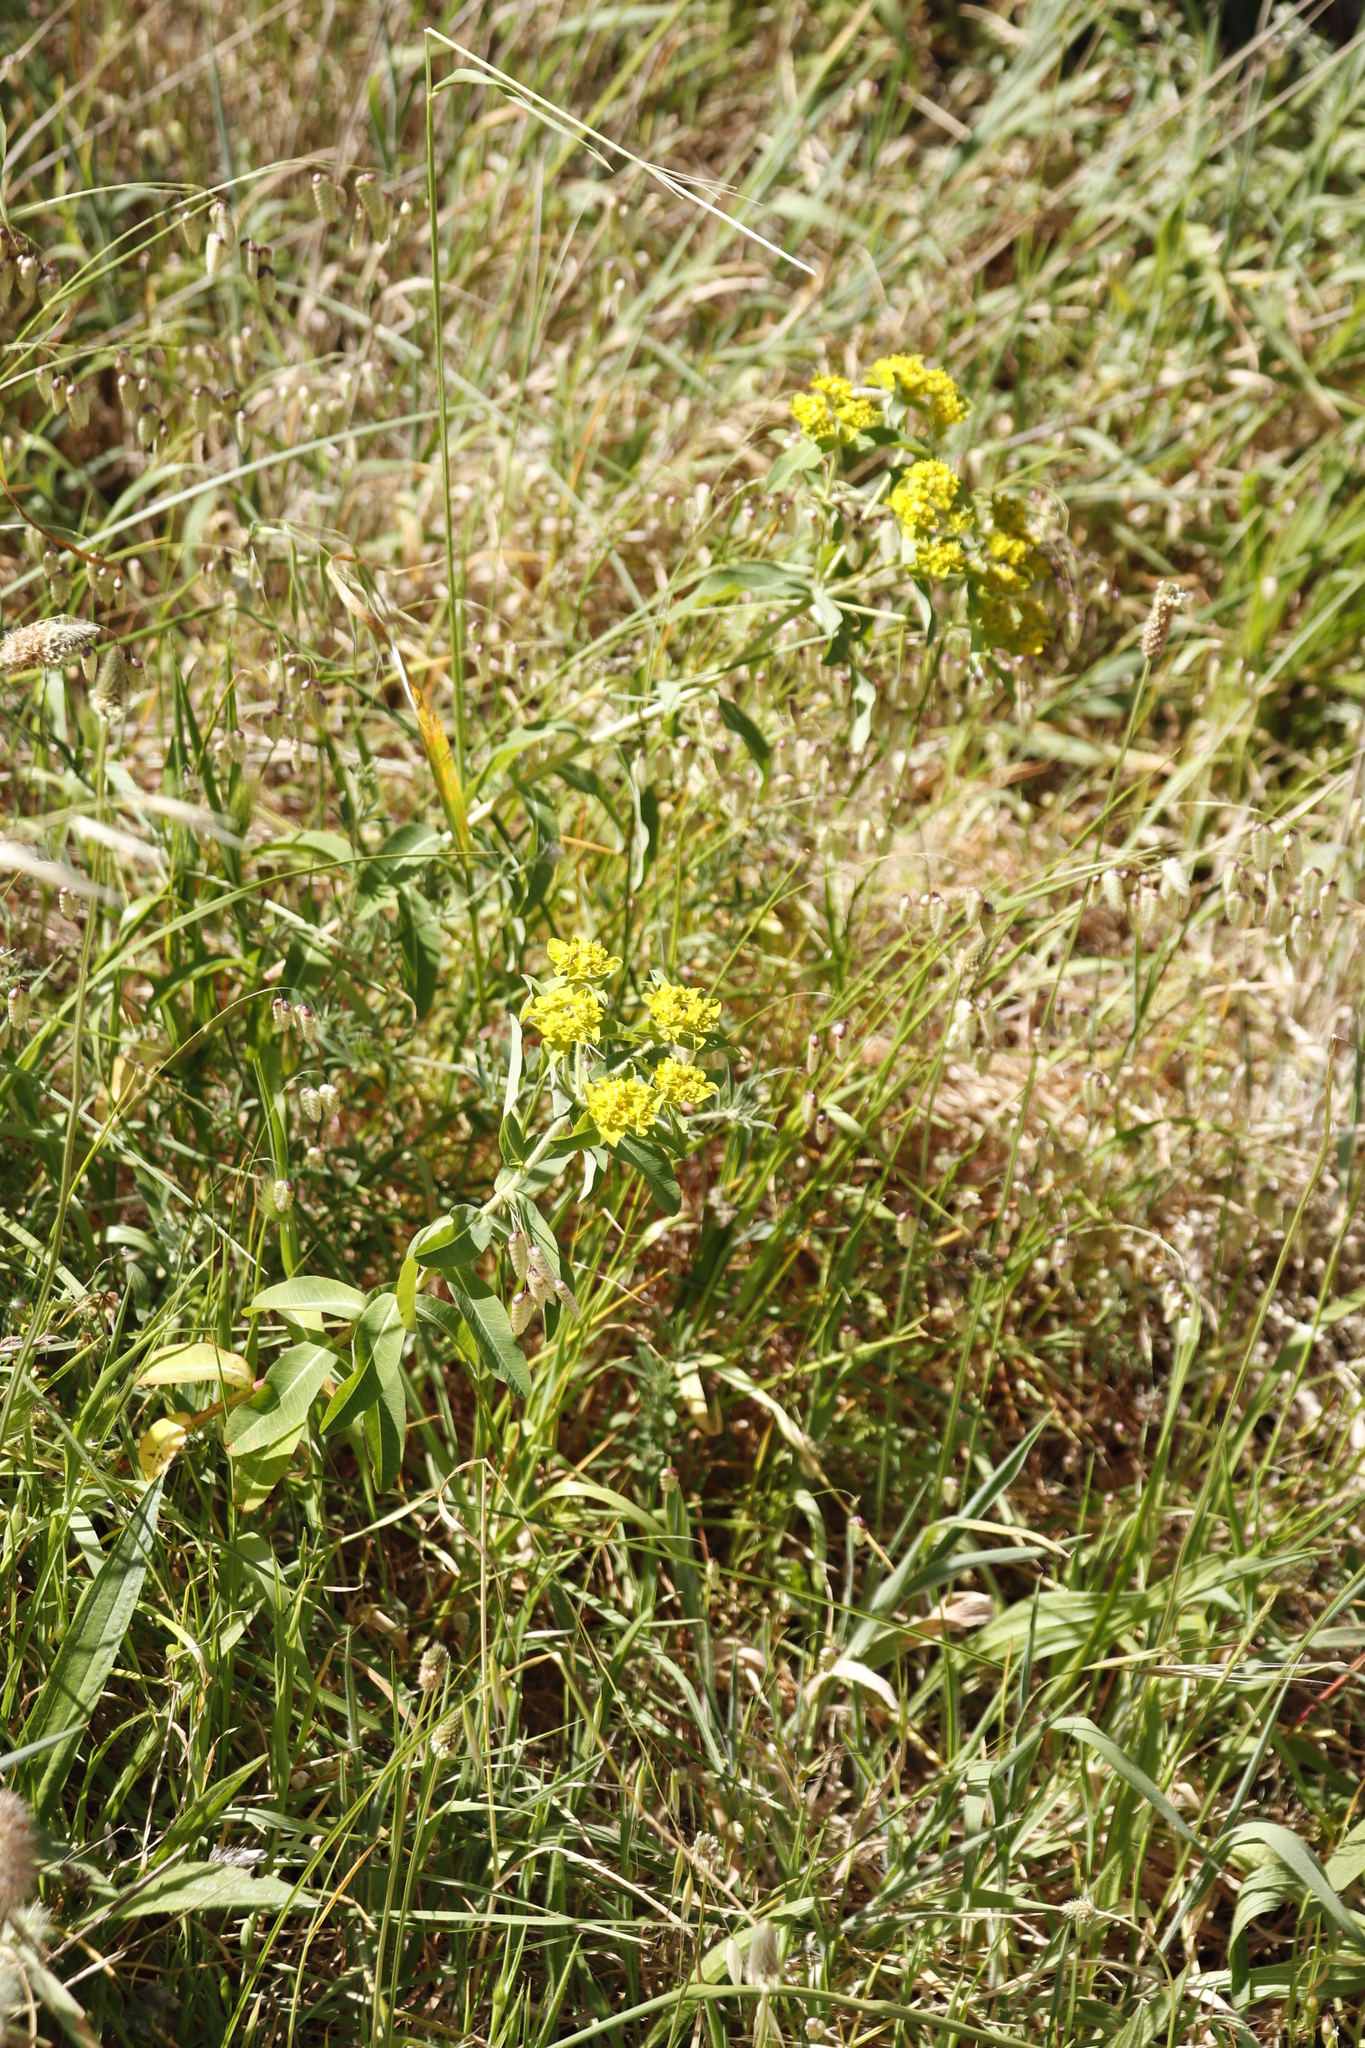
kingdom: Plantae
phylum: Tracheophyta
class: Magnoliopsida
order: Malpighiales
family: Euphorbiaceae
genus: Euphorbia
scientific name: Euphorbia oblongata
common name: Balkan spurge
